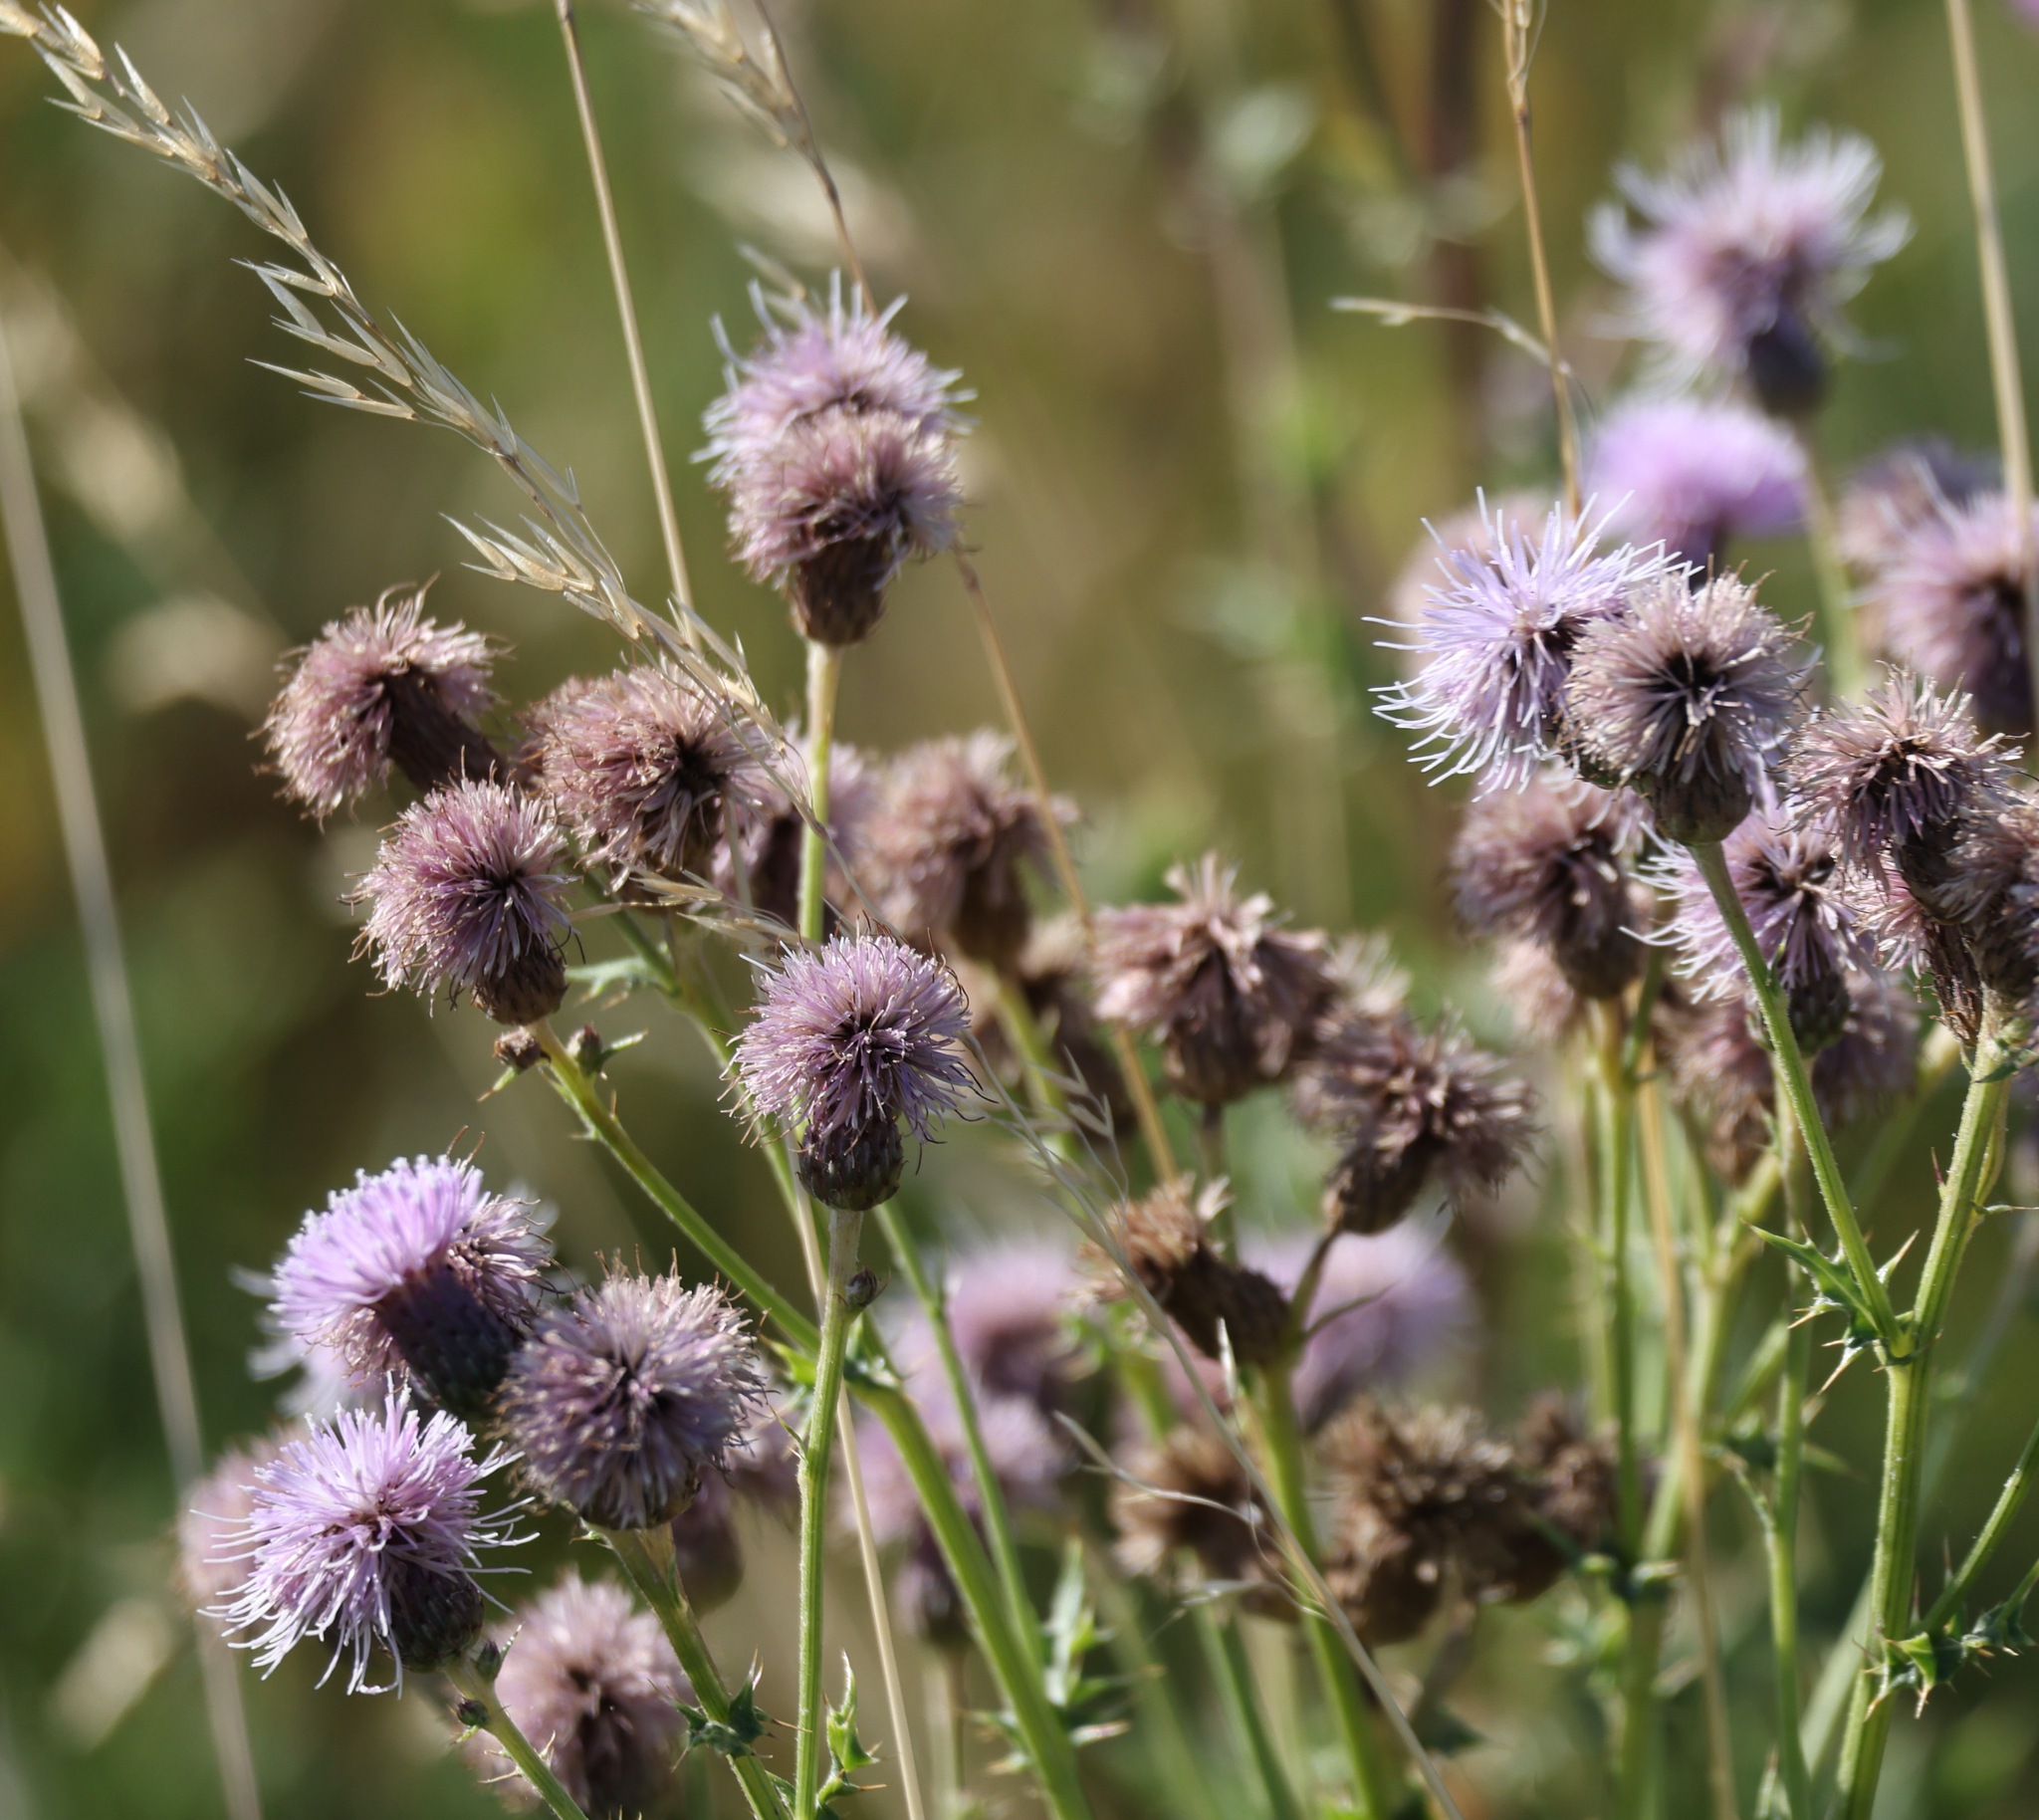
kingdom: Plantae
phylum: Tracheophyta
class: Magnoliopsida
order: Asterales
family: Asteraceae
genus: Cirsium
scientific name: Cirsium arvense
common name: Creeping thistle
